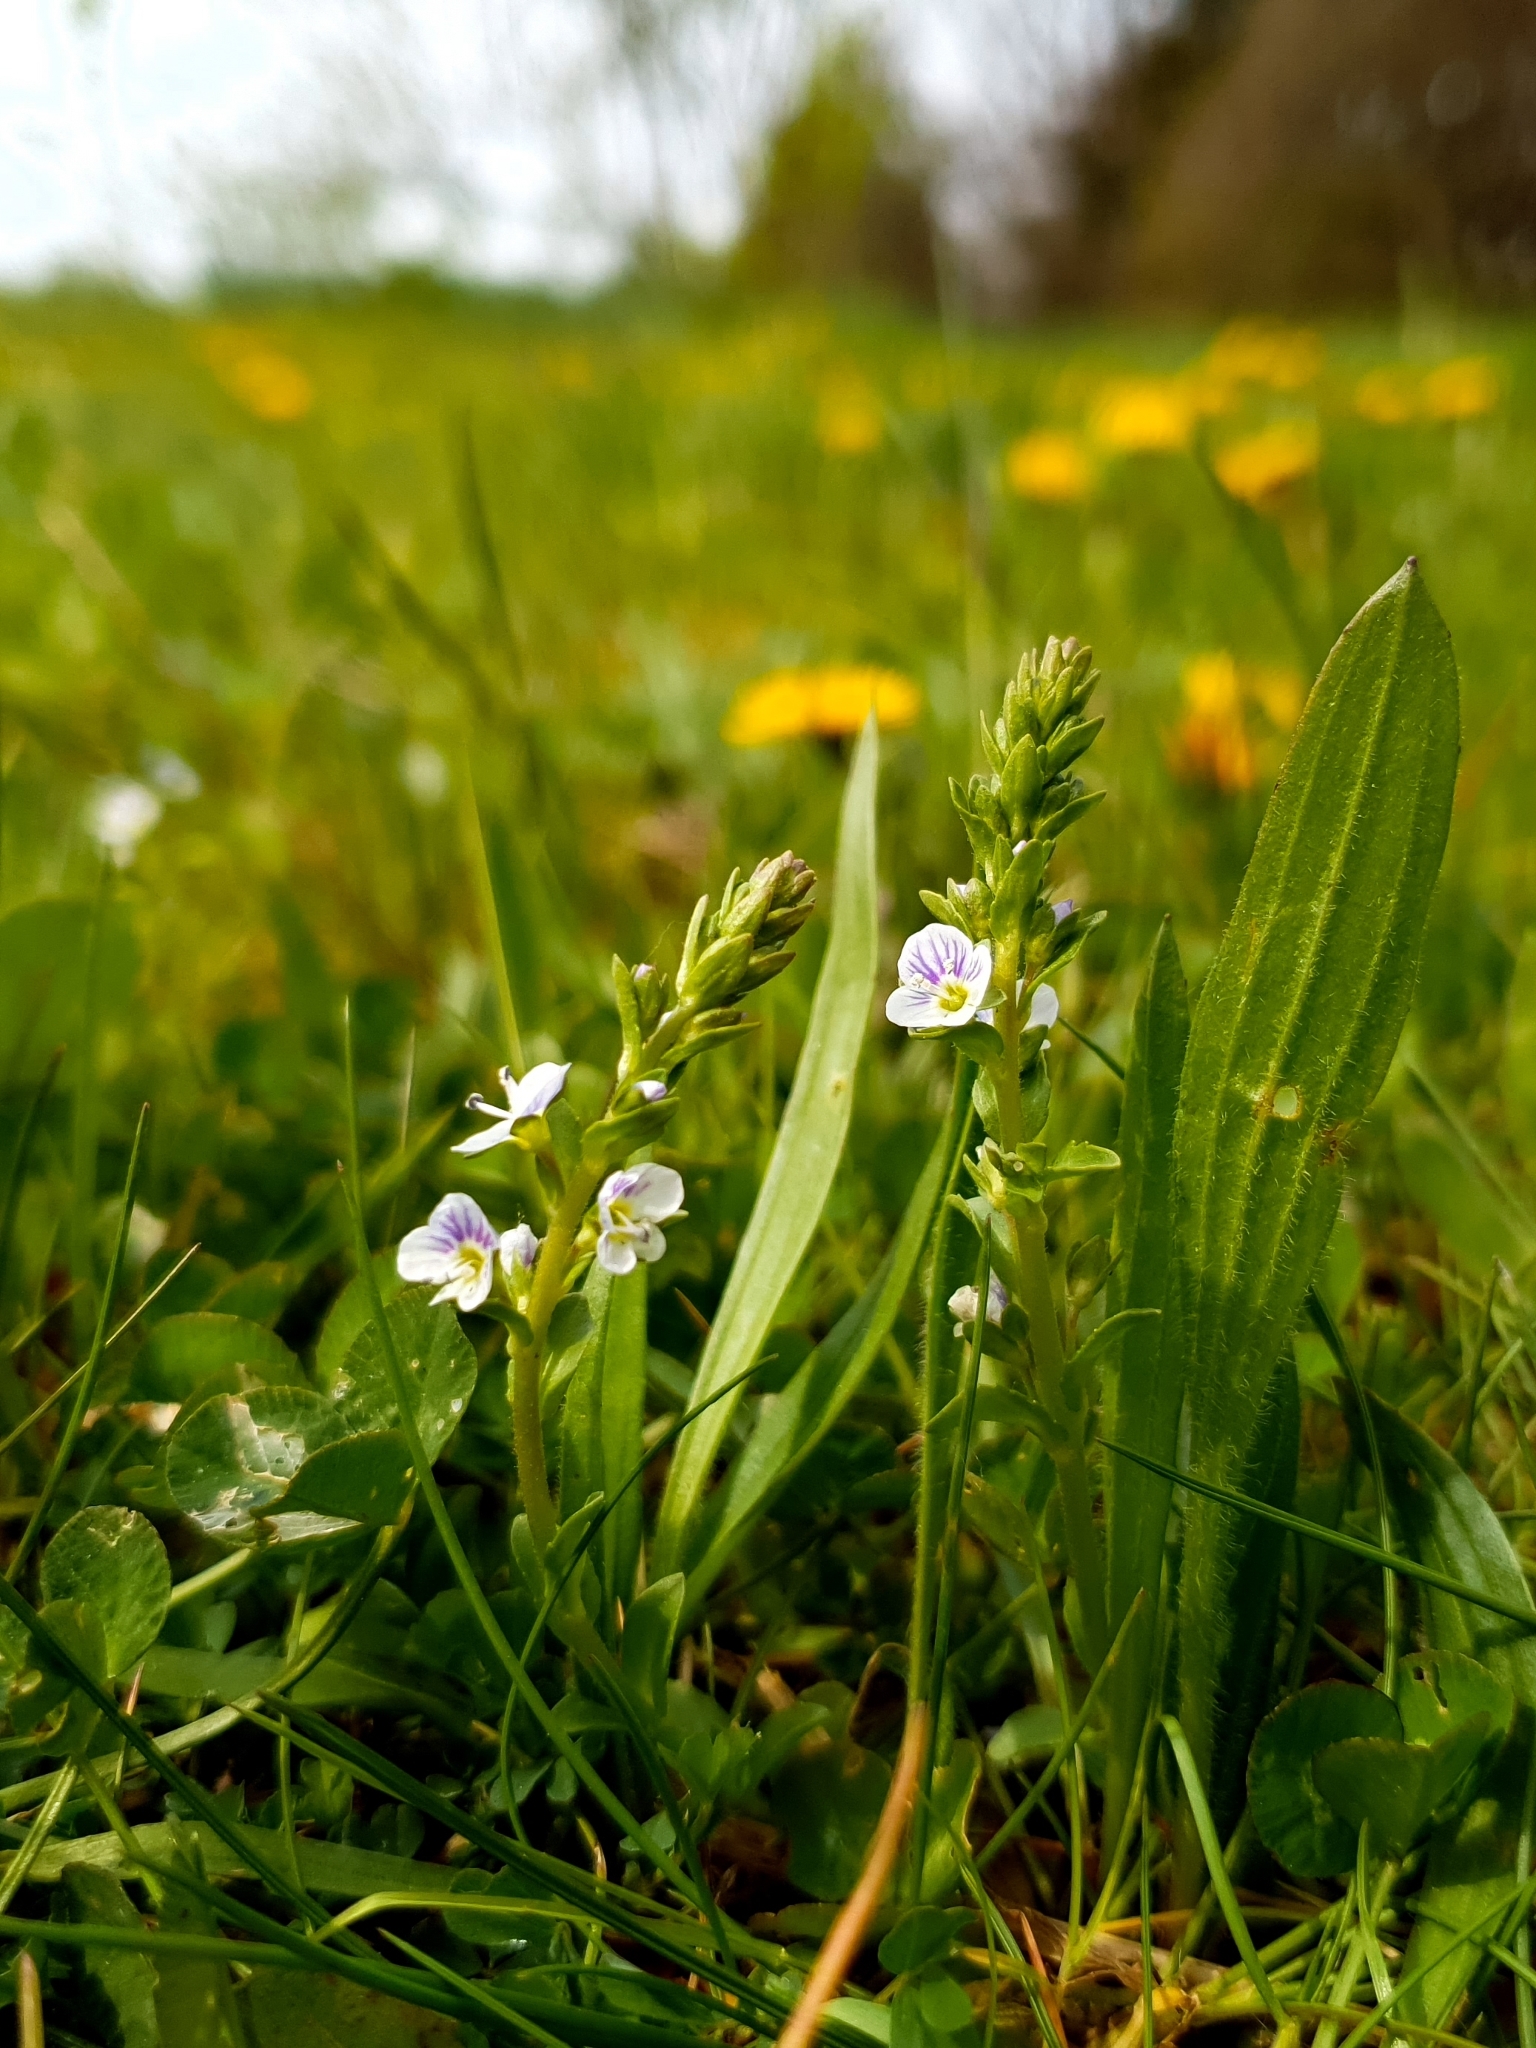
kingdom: Plantae
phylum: Tracheophyta
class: Magnoliopsida
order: Lamiales
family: Plantaginaceae
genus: Veronica
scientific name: Veronica serpyllifolia
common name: Thyme-leaved speedwell
